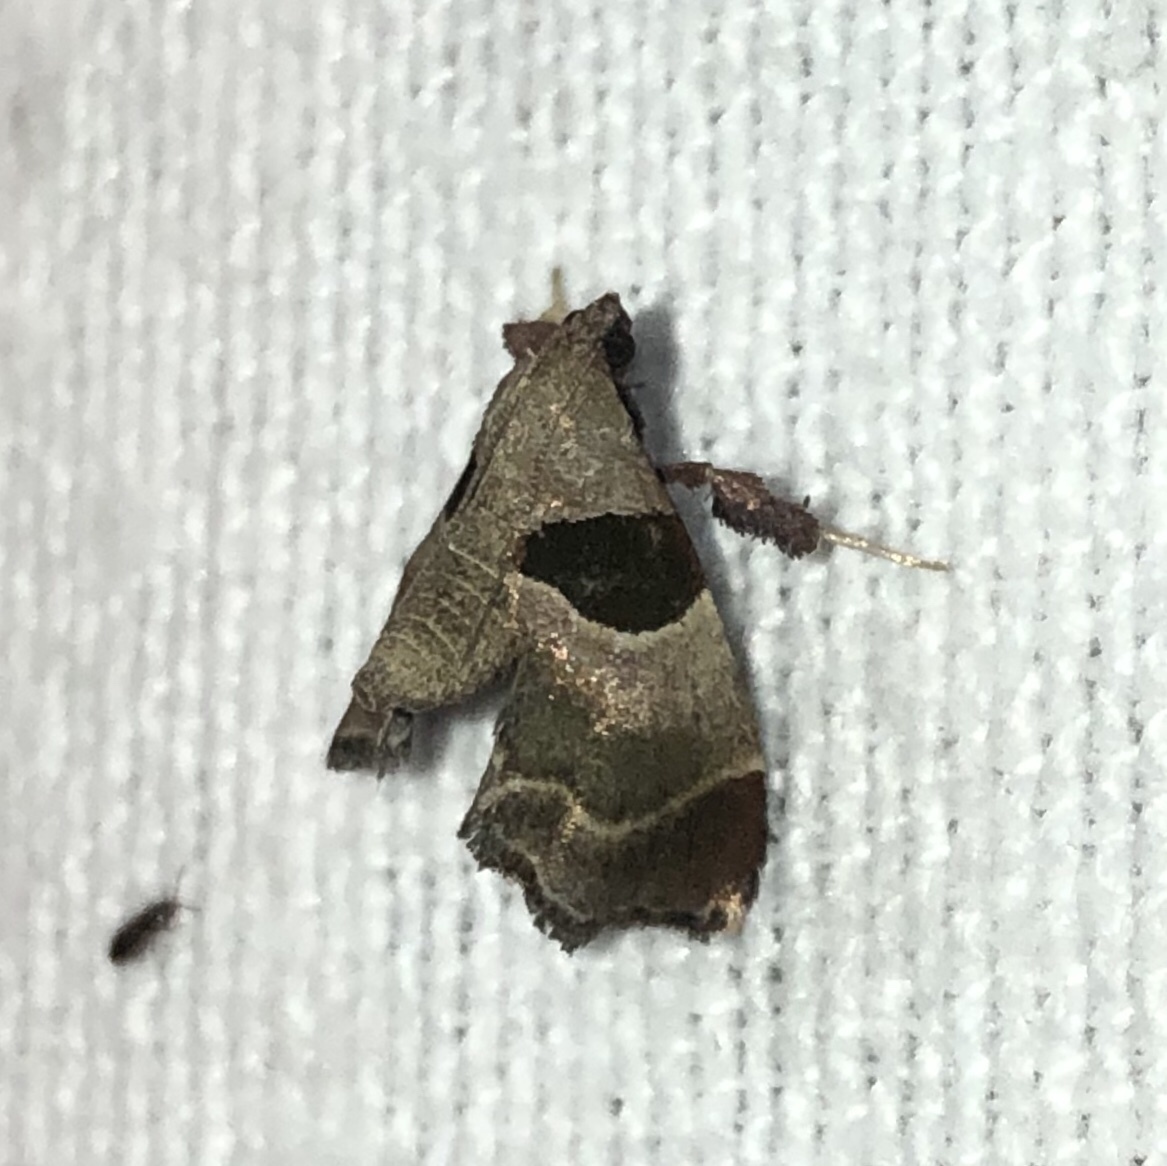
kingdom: Animalia
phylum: Arthropoda
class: Insecta
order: Lepidoptera
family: Pyralidae
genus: Tosale
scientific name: Tosale oviplagalis
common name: Dimorphic tosale moth
